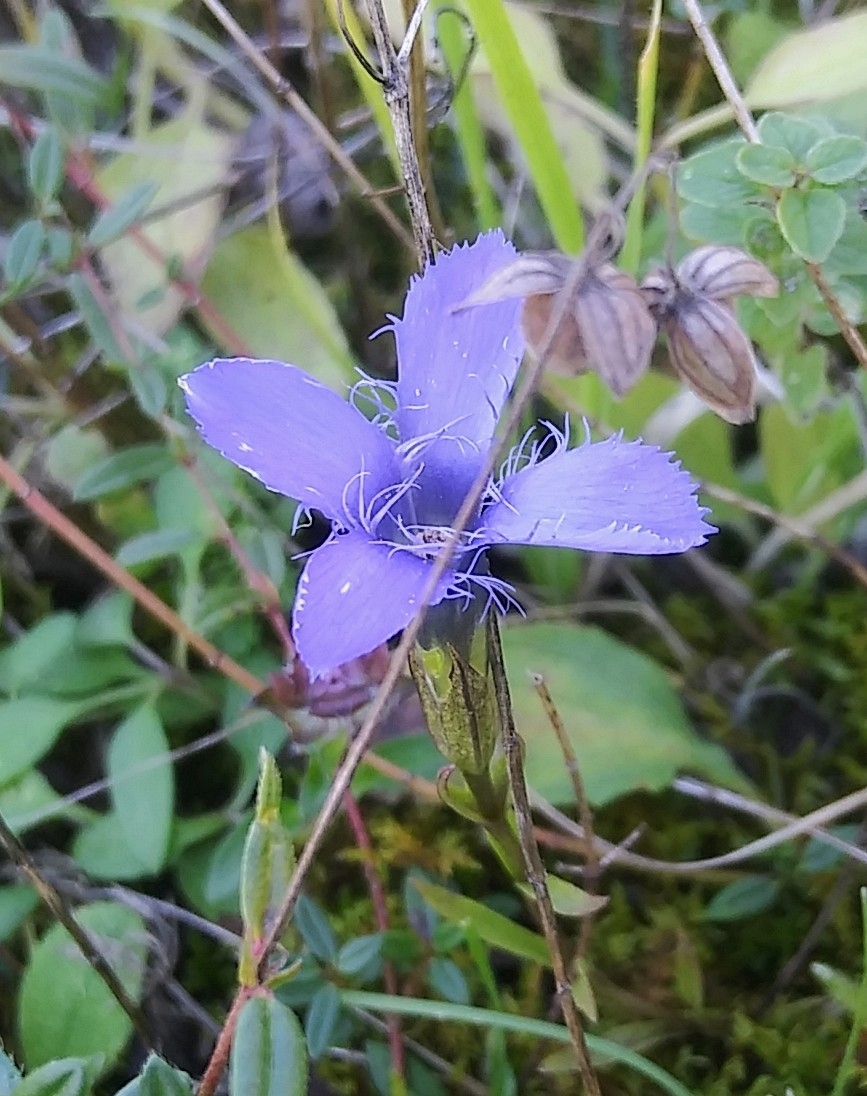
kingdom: Plantae
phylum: Tracheophyta
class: Magnoliopsida
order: Gentianales
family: Gentianaceae
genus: Gentianopsis
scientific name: Gentianopsis ciliata
